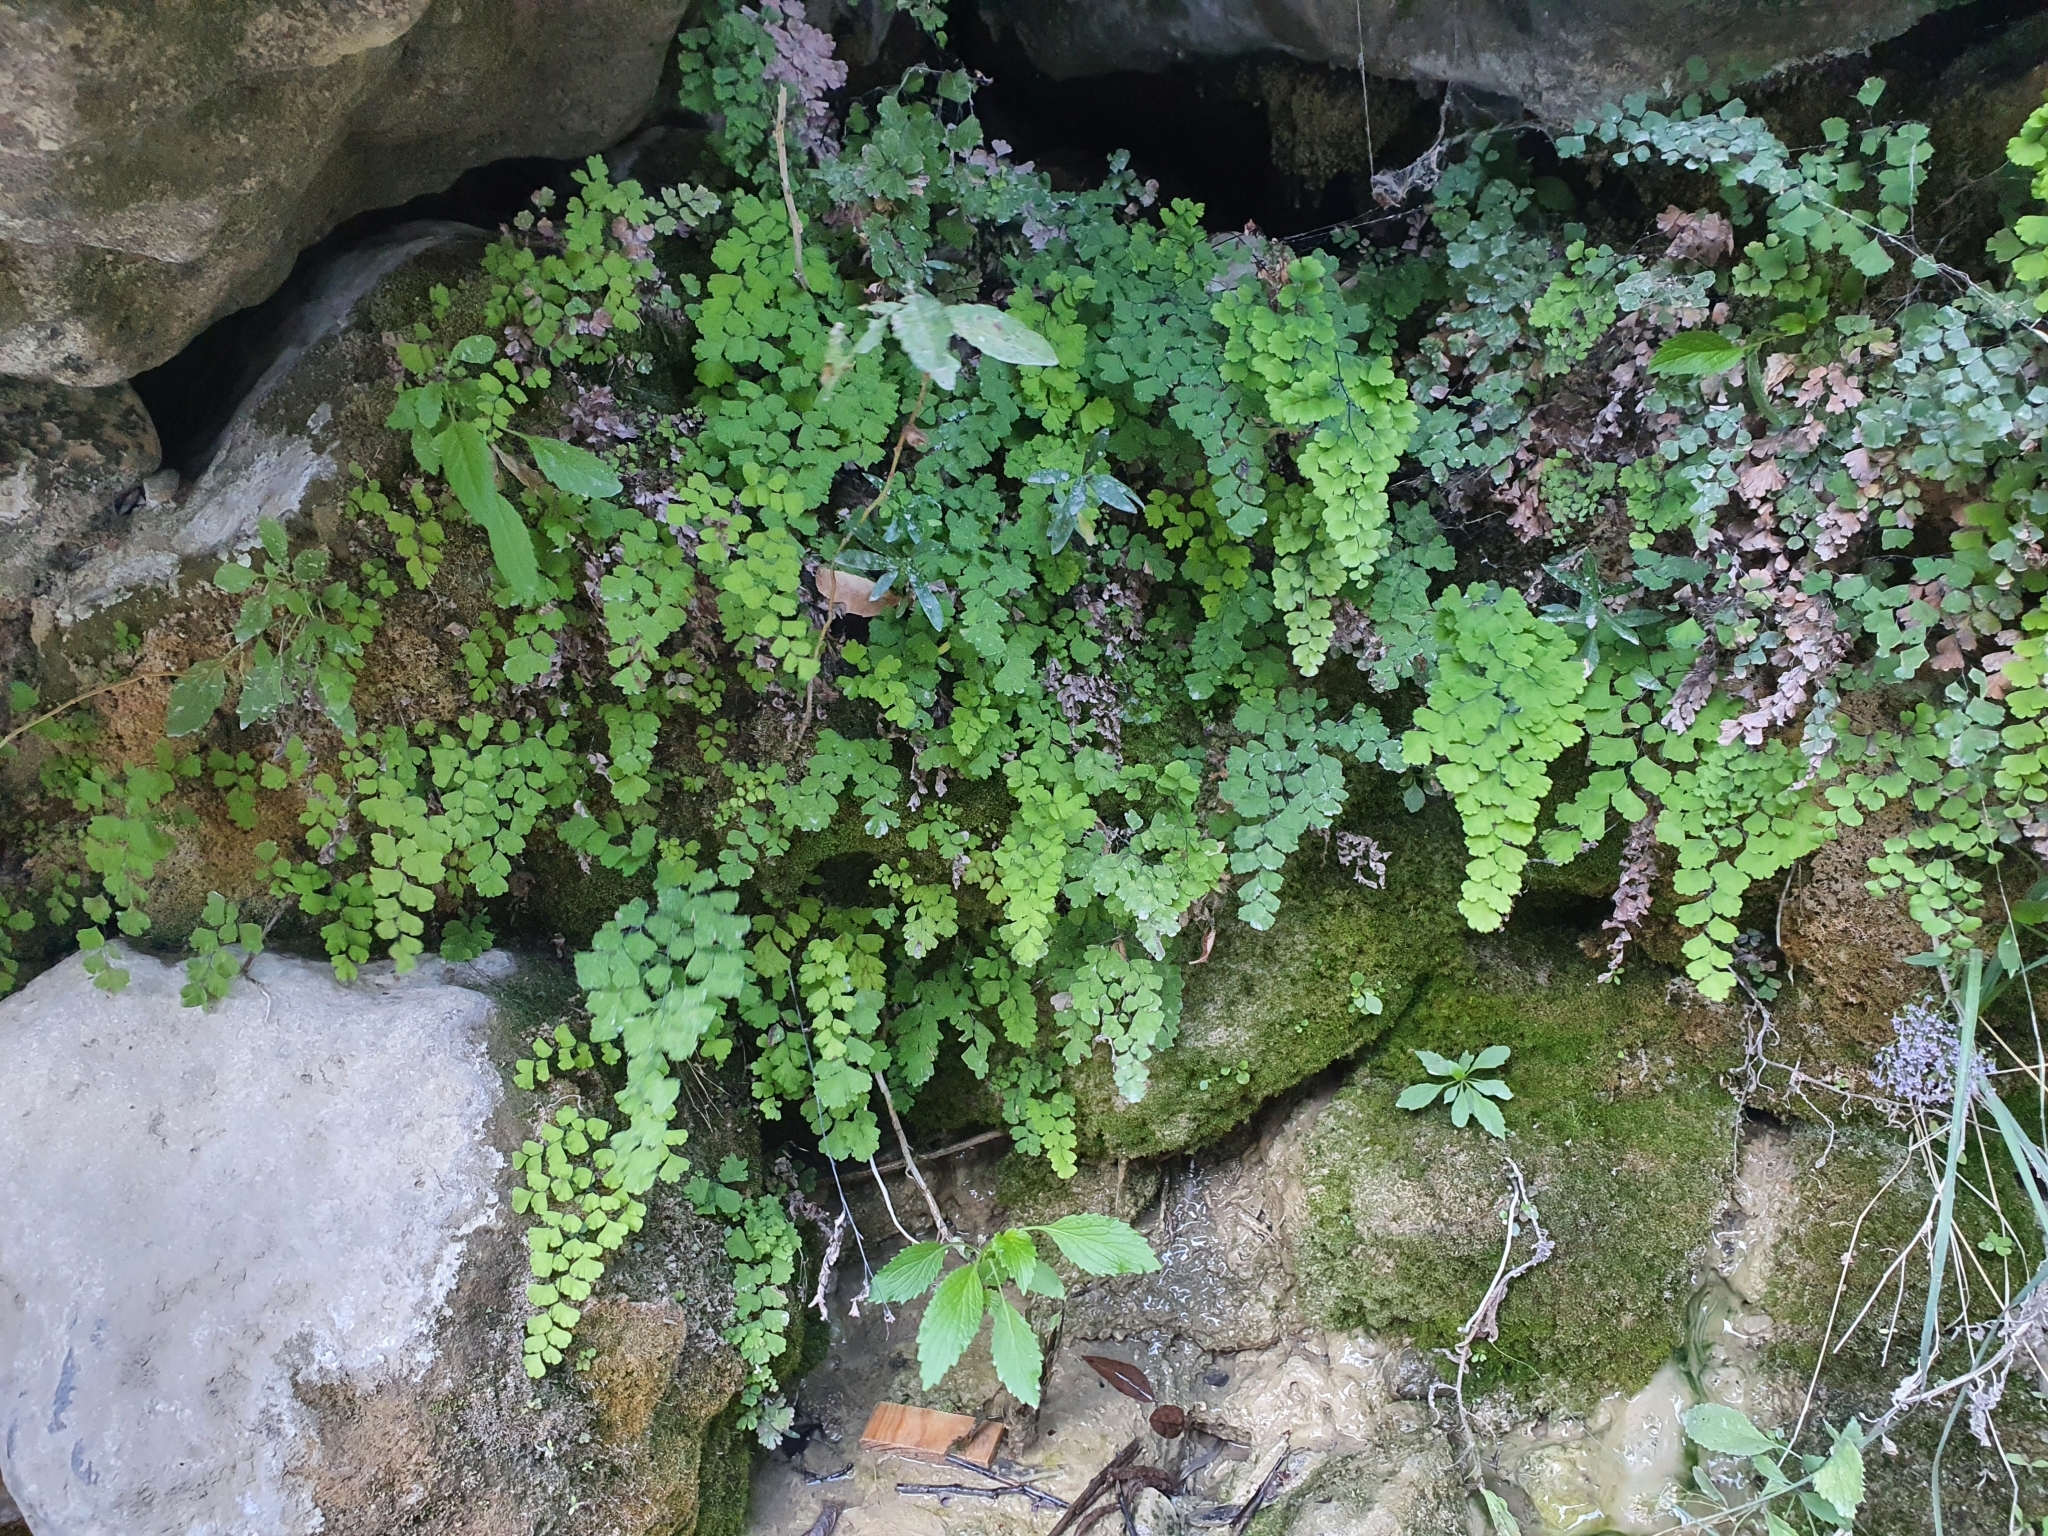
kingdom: Plantae
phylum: Tracheophyta
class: Polypodiopsida
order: Polypodiales
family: Pteridaceae
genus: Adiantum
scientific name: Adiantum capillus-veneris
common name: Maidenhair fern
